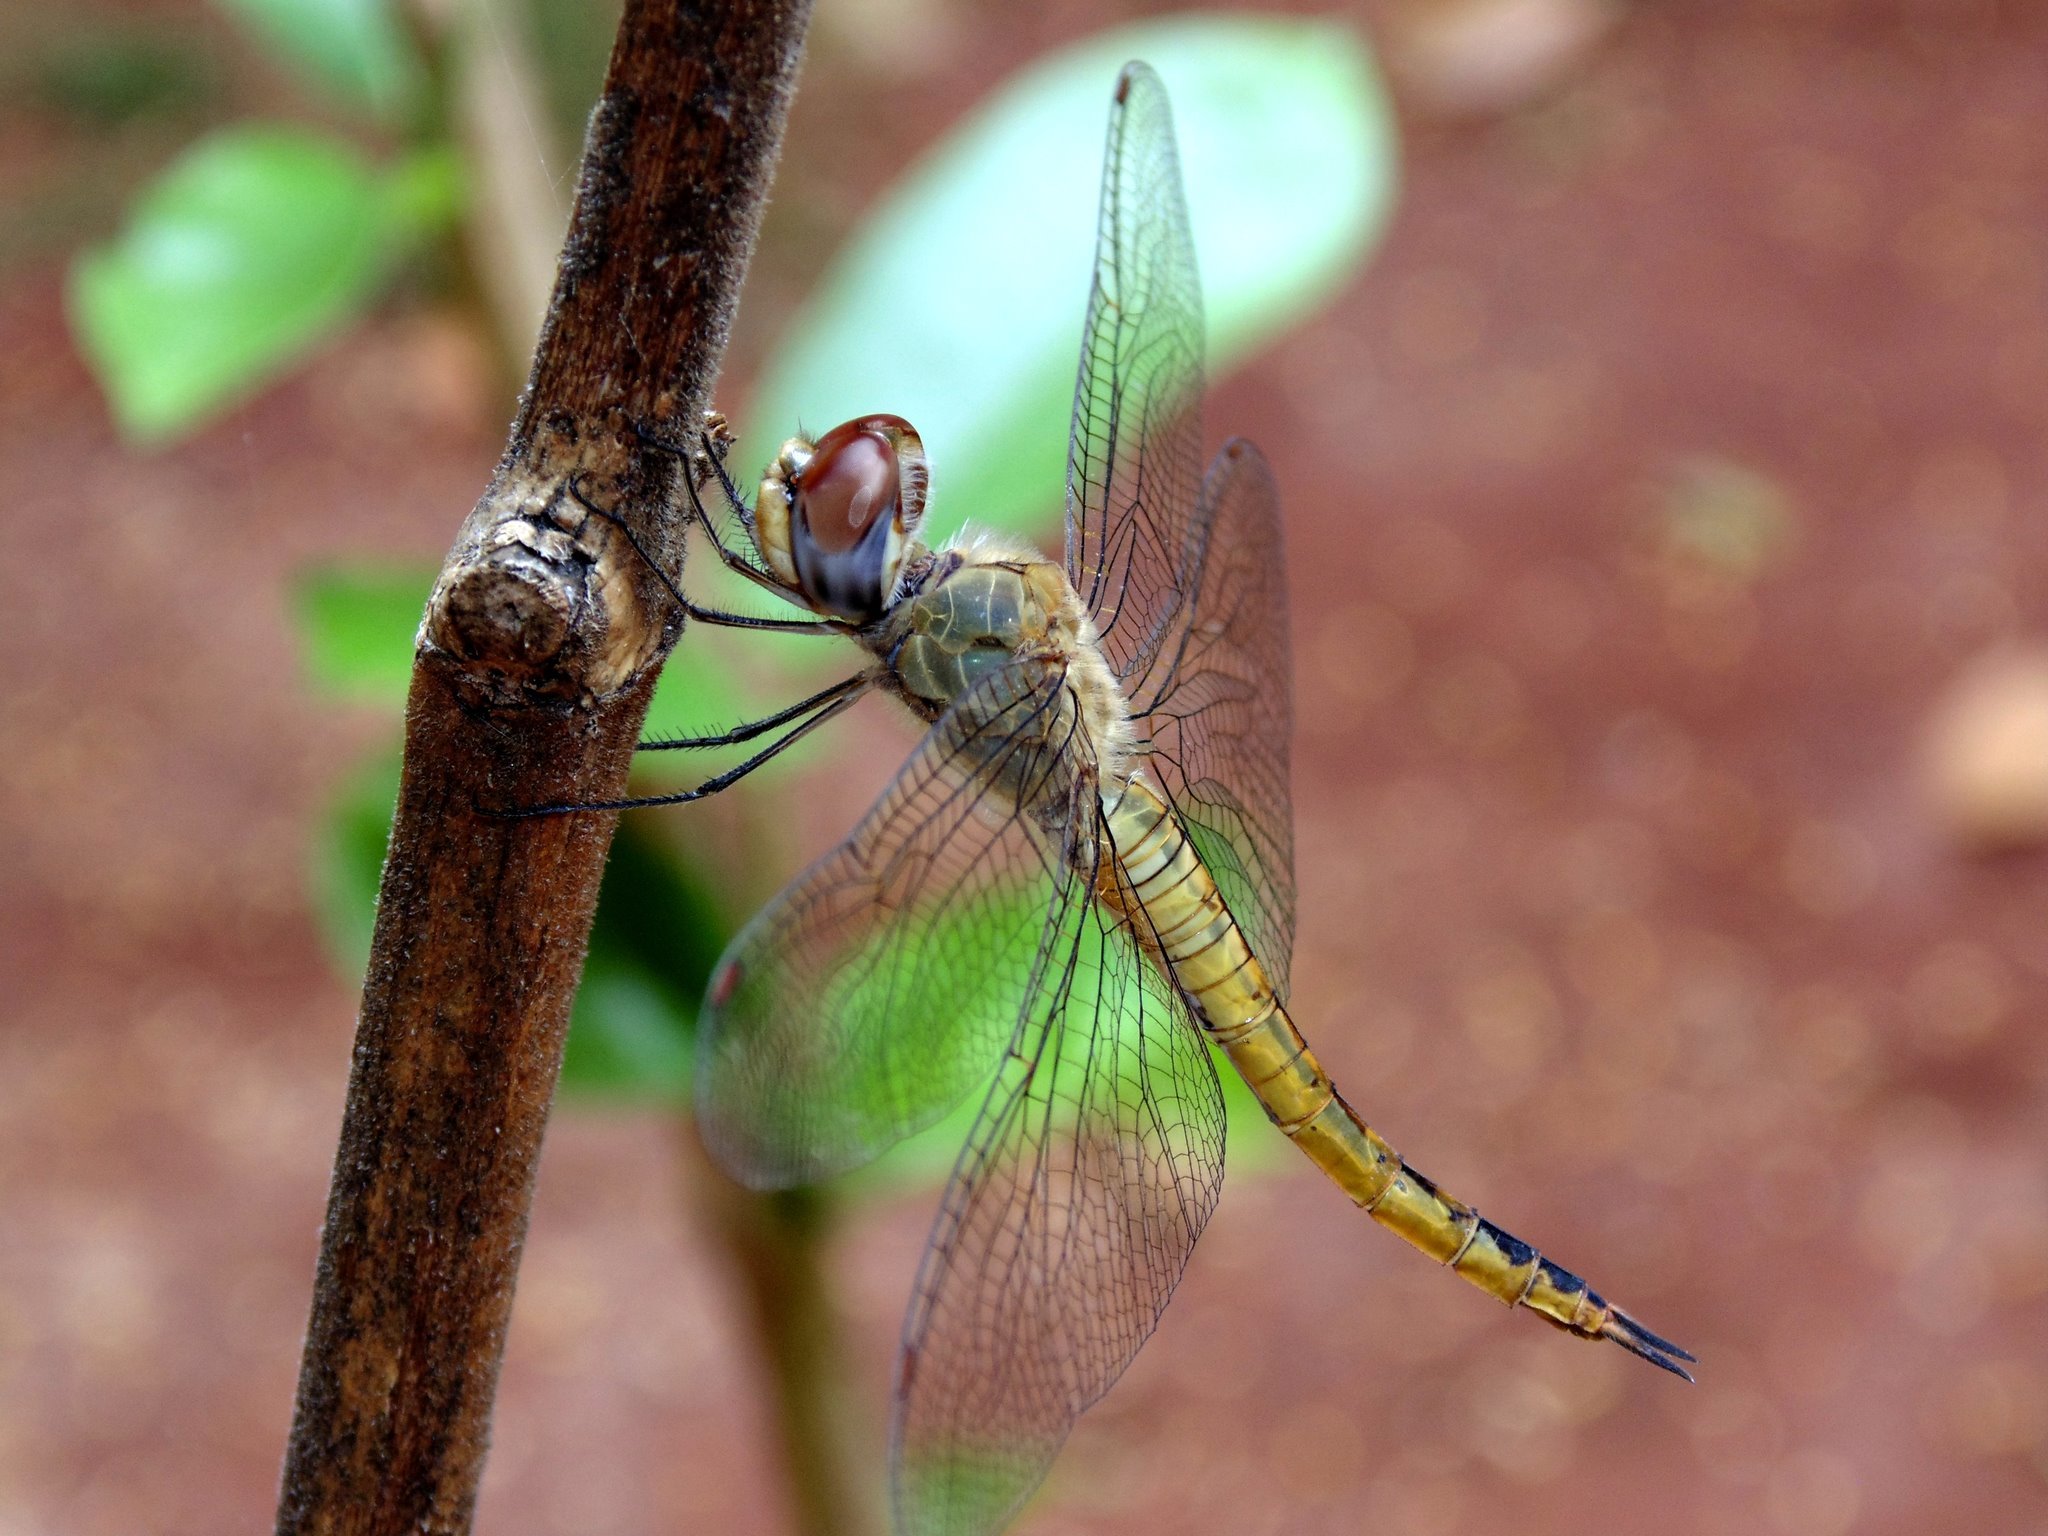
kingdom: Animalia
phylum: Arthropoda
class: Insecta
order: Odonata
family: Libellulidae
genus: Pantala
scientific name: Pantala flavescens
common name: Wandering glider
